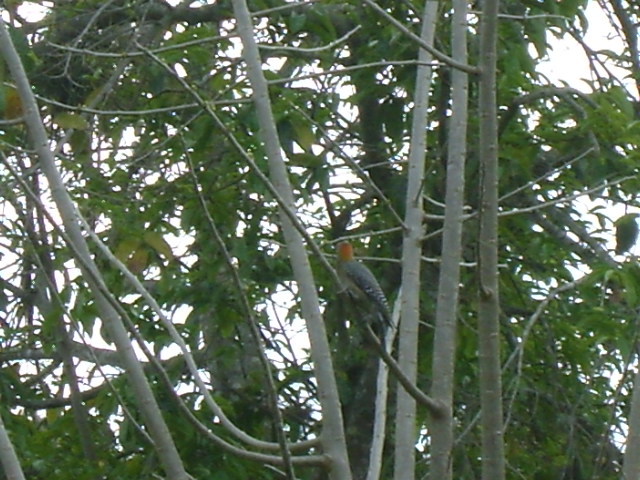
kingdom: Animalia
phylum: Chordata
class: Aves
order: Piciformes
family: Picidae
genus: Melanerpes
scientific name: Melanerpes aurifrons
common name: Golden-fronted woodpecker
